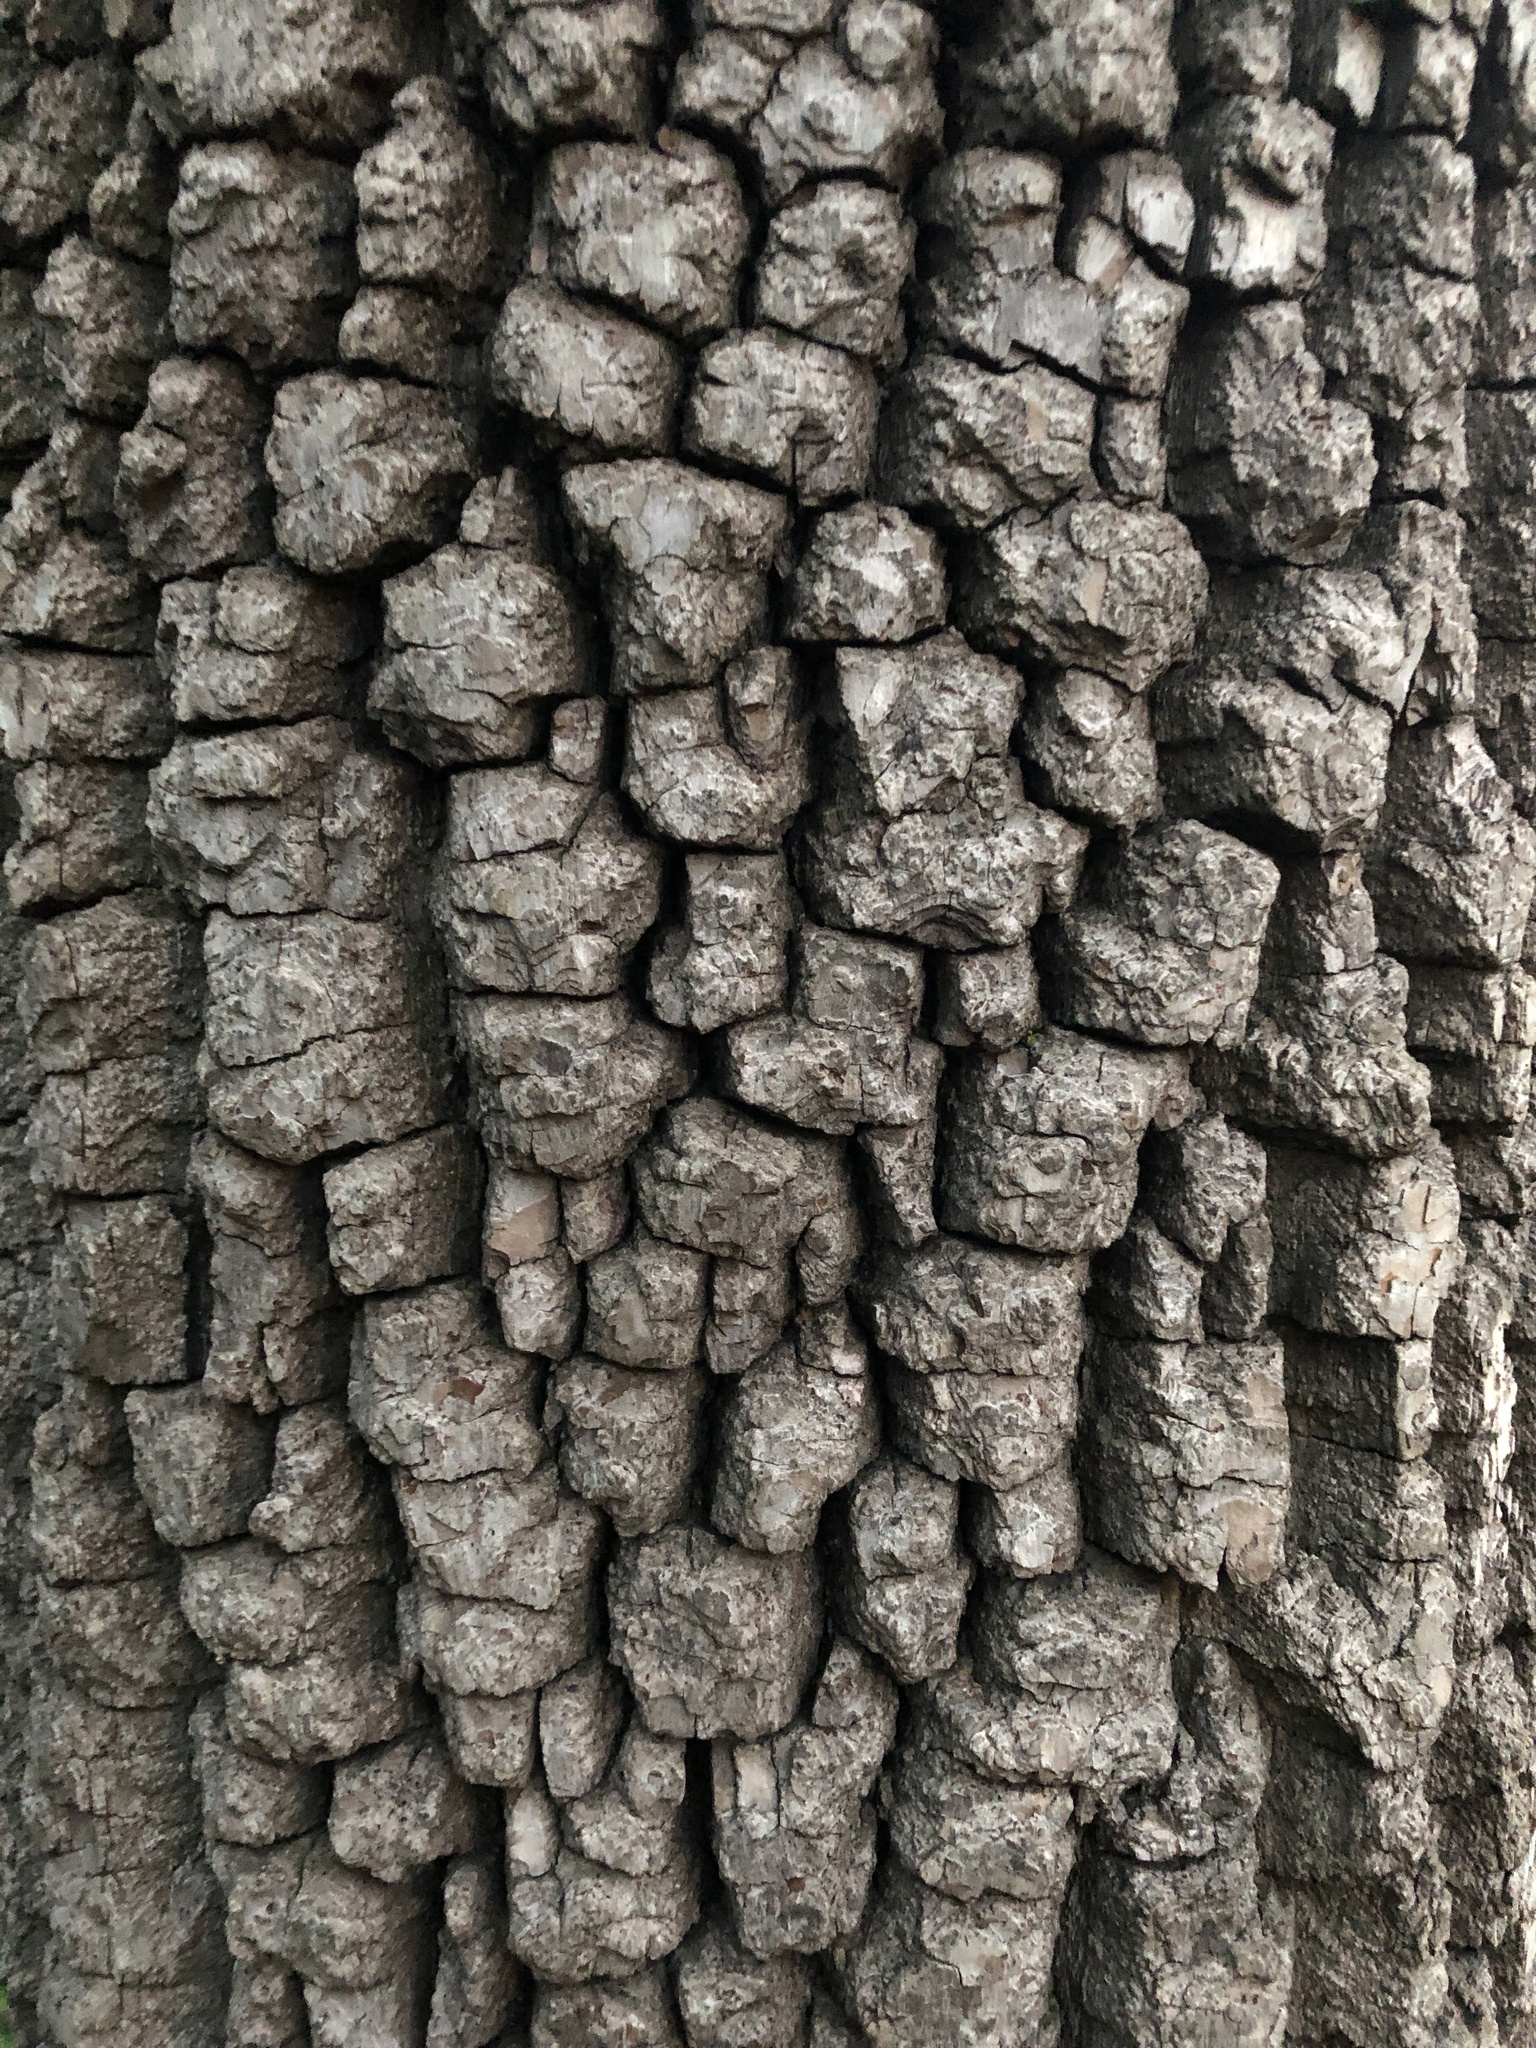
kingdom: Plantae
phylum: Tracheophyta
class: Magnoliopsida
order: Ericales
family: Ebenaceae
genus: Diospyros
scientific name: Diospyros virginiana
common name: Persimmon
